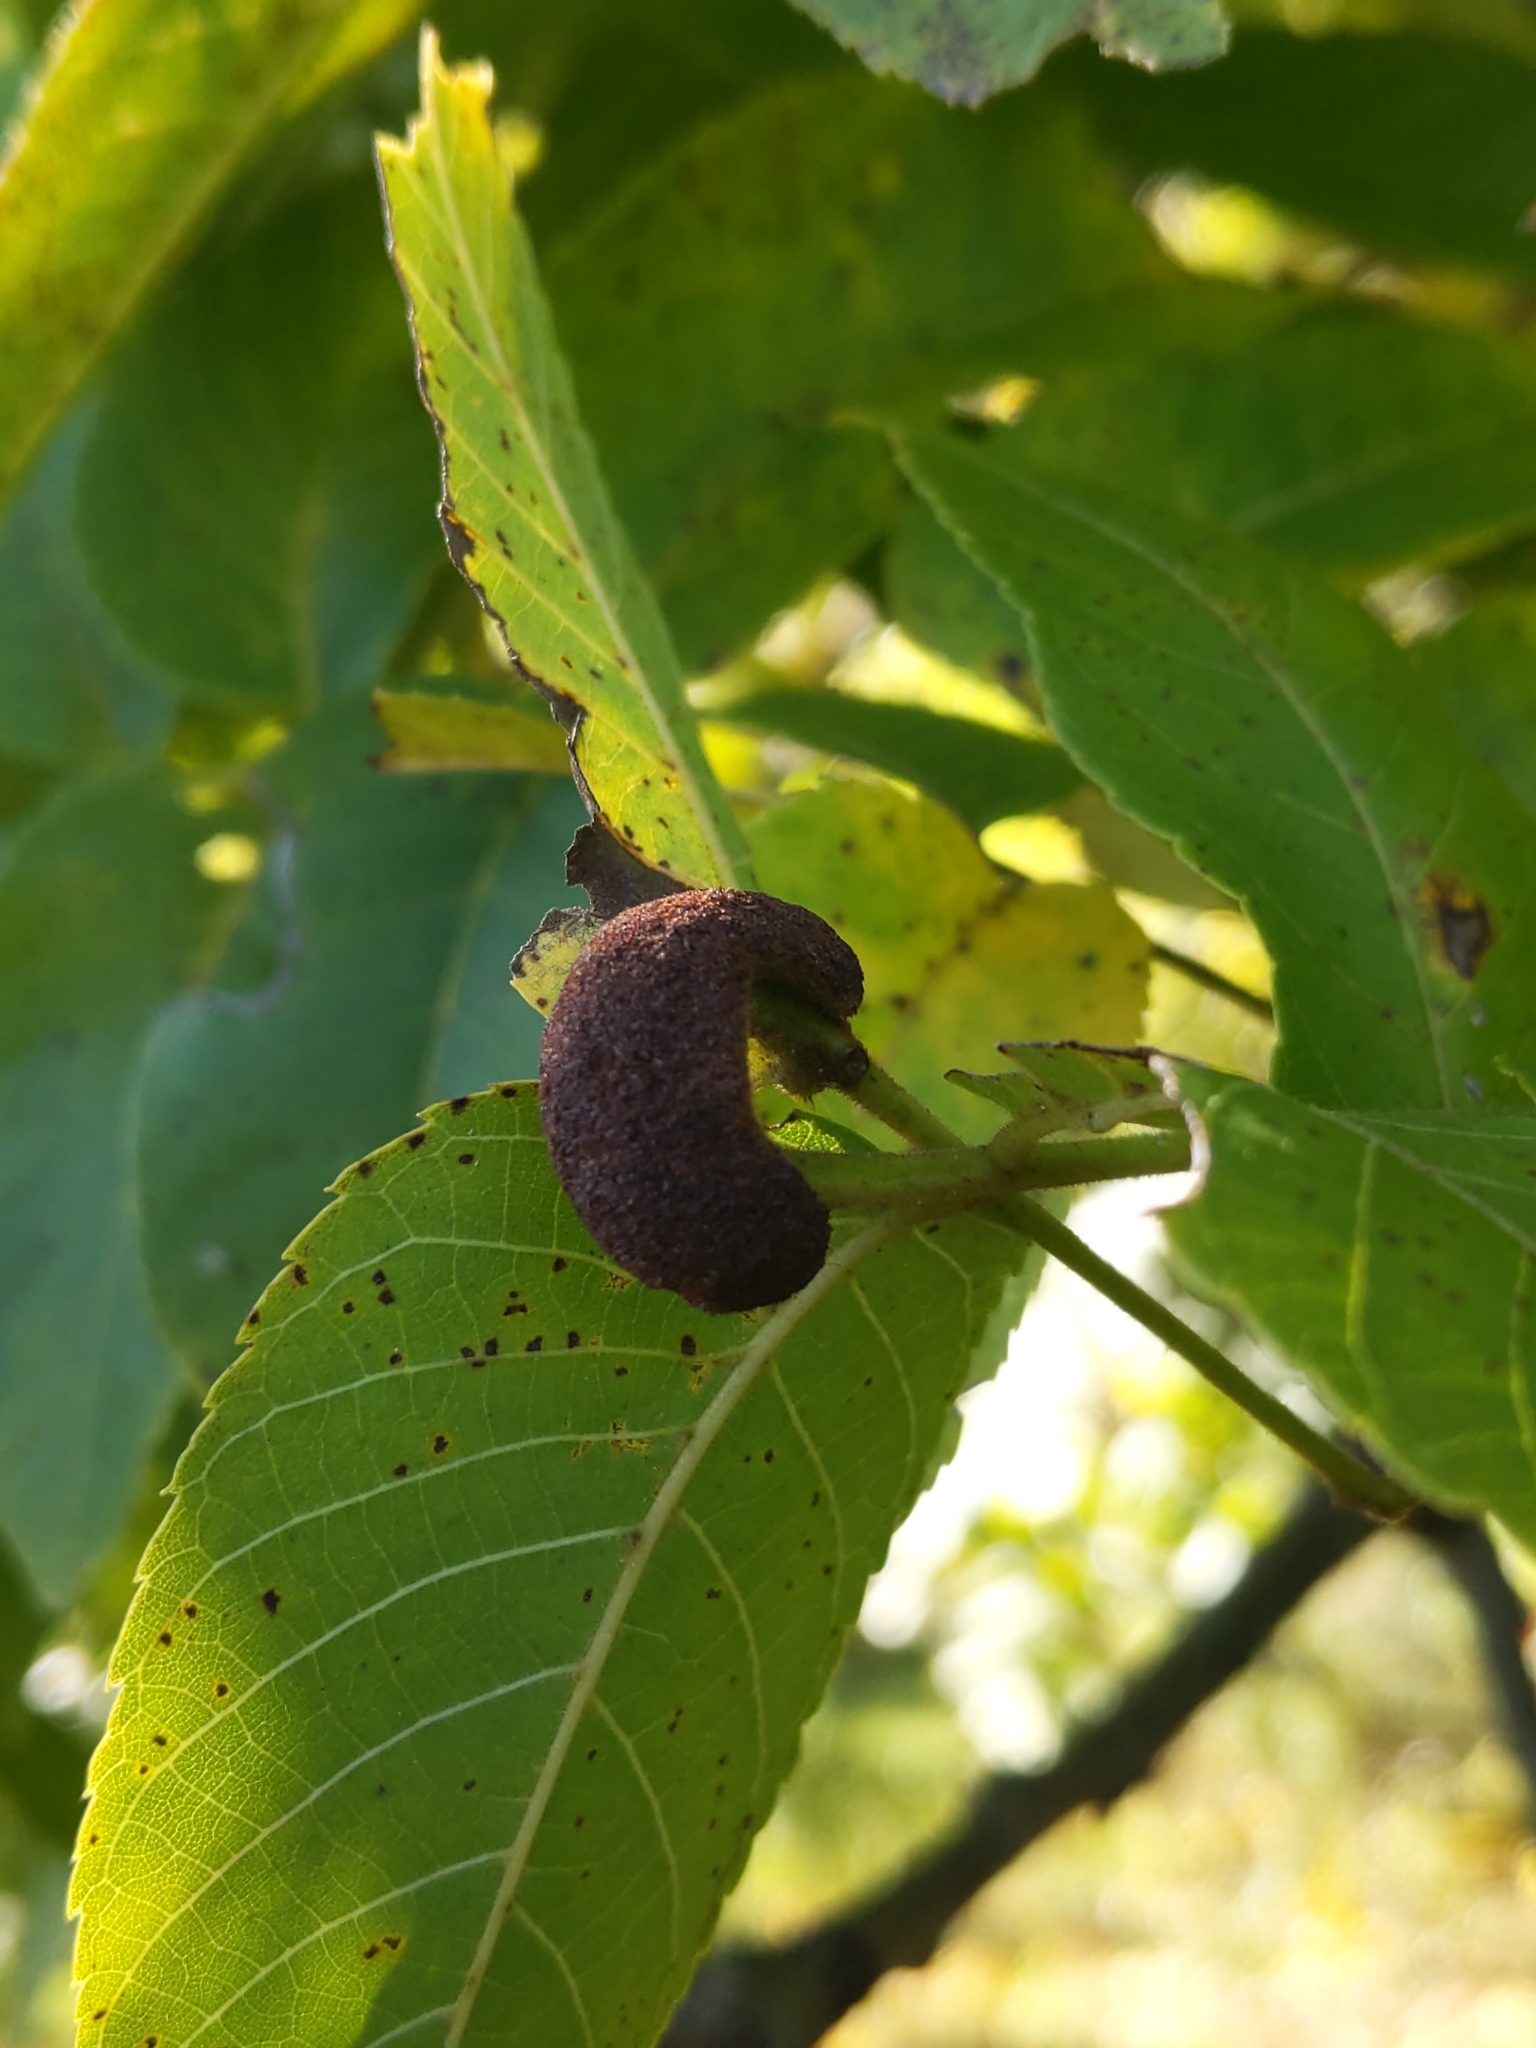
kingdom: Animalia
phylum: Arthropoda
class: Arachnida
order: Trombidiformes
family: Eriophyidae
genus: Aceria
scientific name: Aceria
